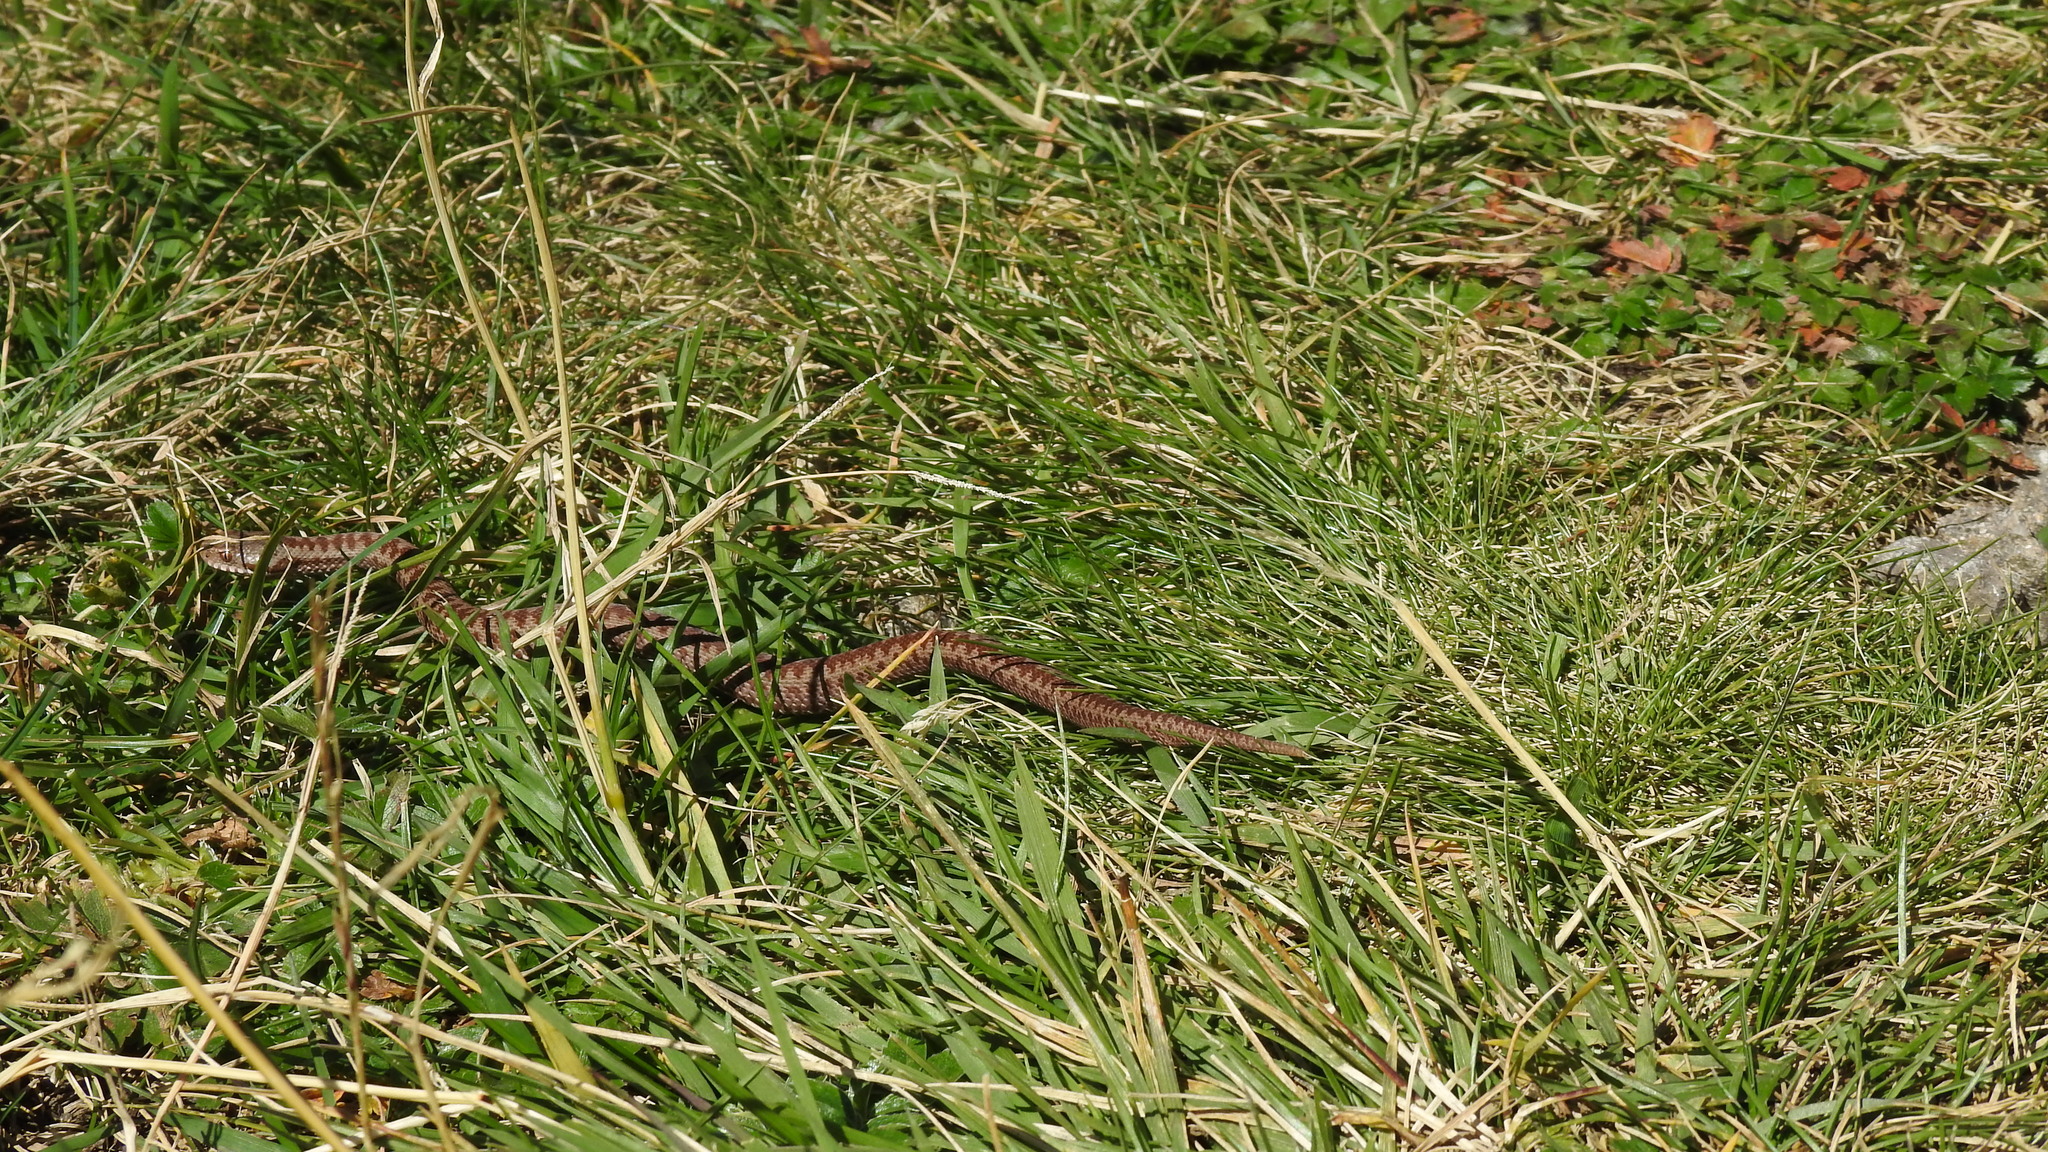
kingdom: Animalia
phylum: Chordata
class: Squamata
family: Viperidae
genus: Vipera
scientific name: Vipera berus
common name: Adder
